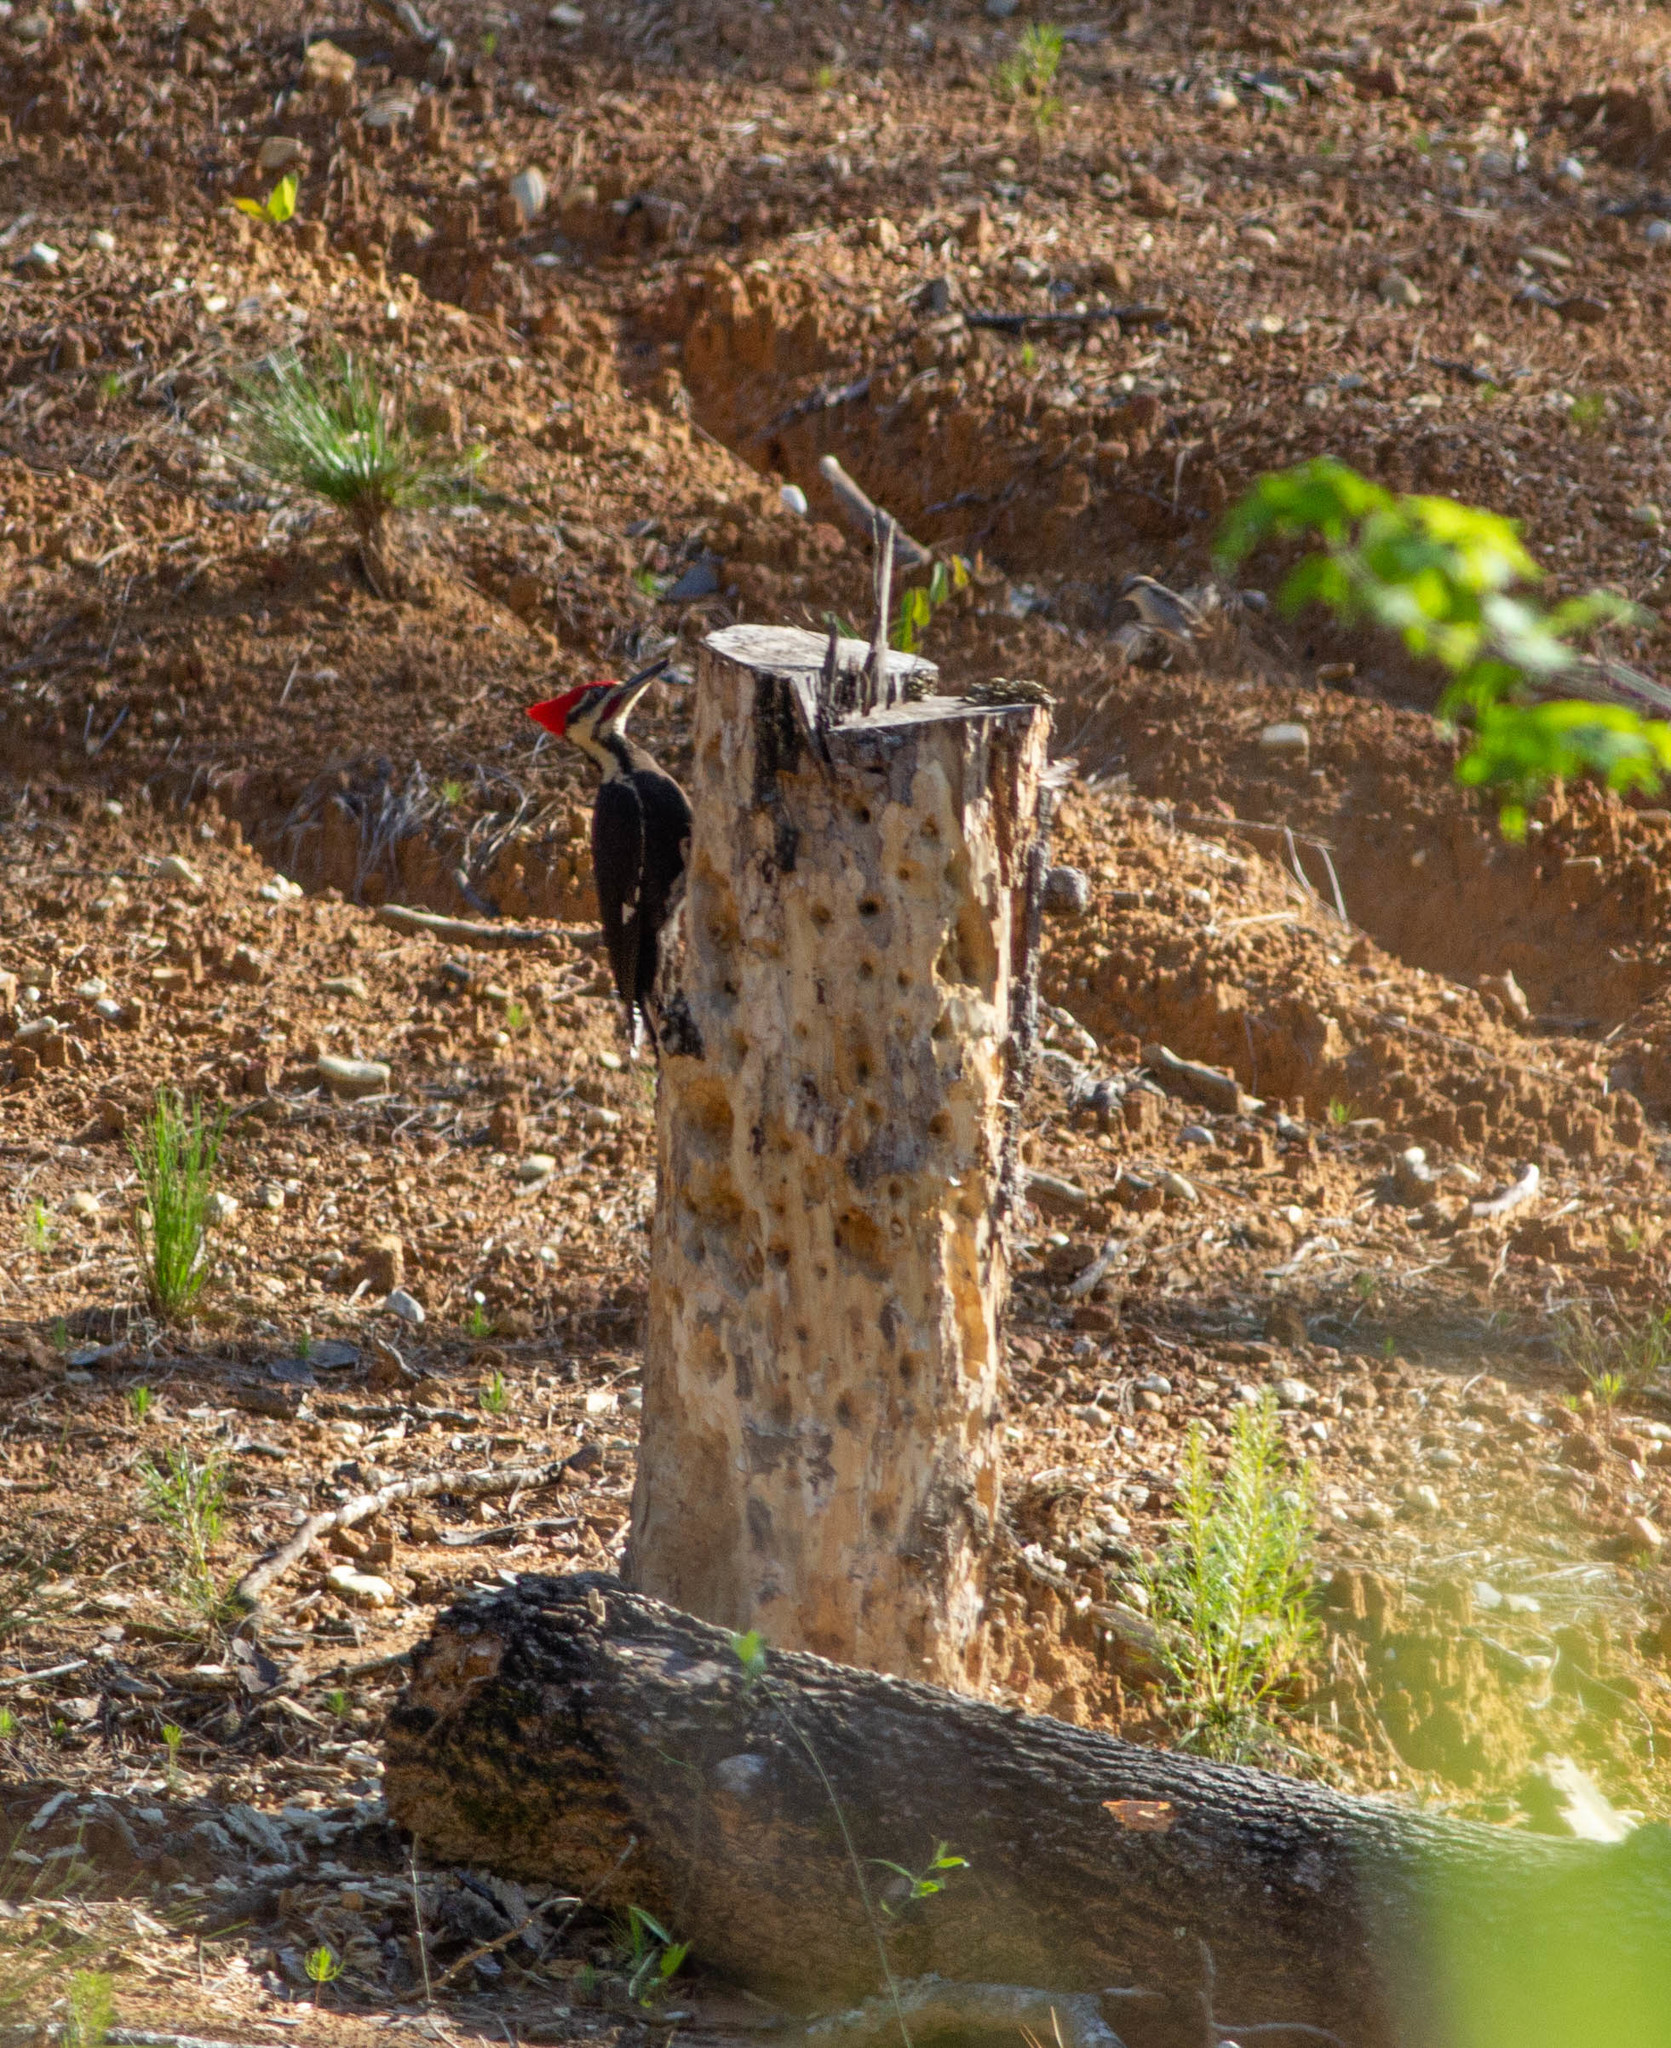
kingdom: Animalia
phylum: Chordata
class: Aves
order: Piciformes
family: Picidae
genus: Dryocopus
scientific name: Dryocopus pileatus
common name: Pileated woodpecker
